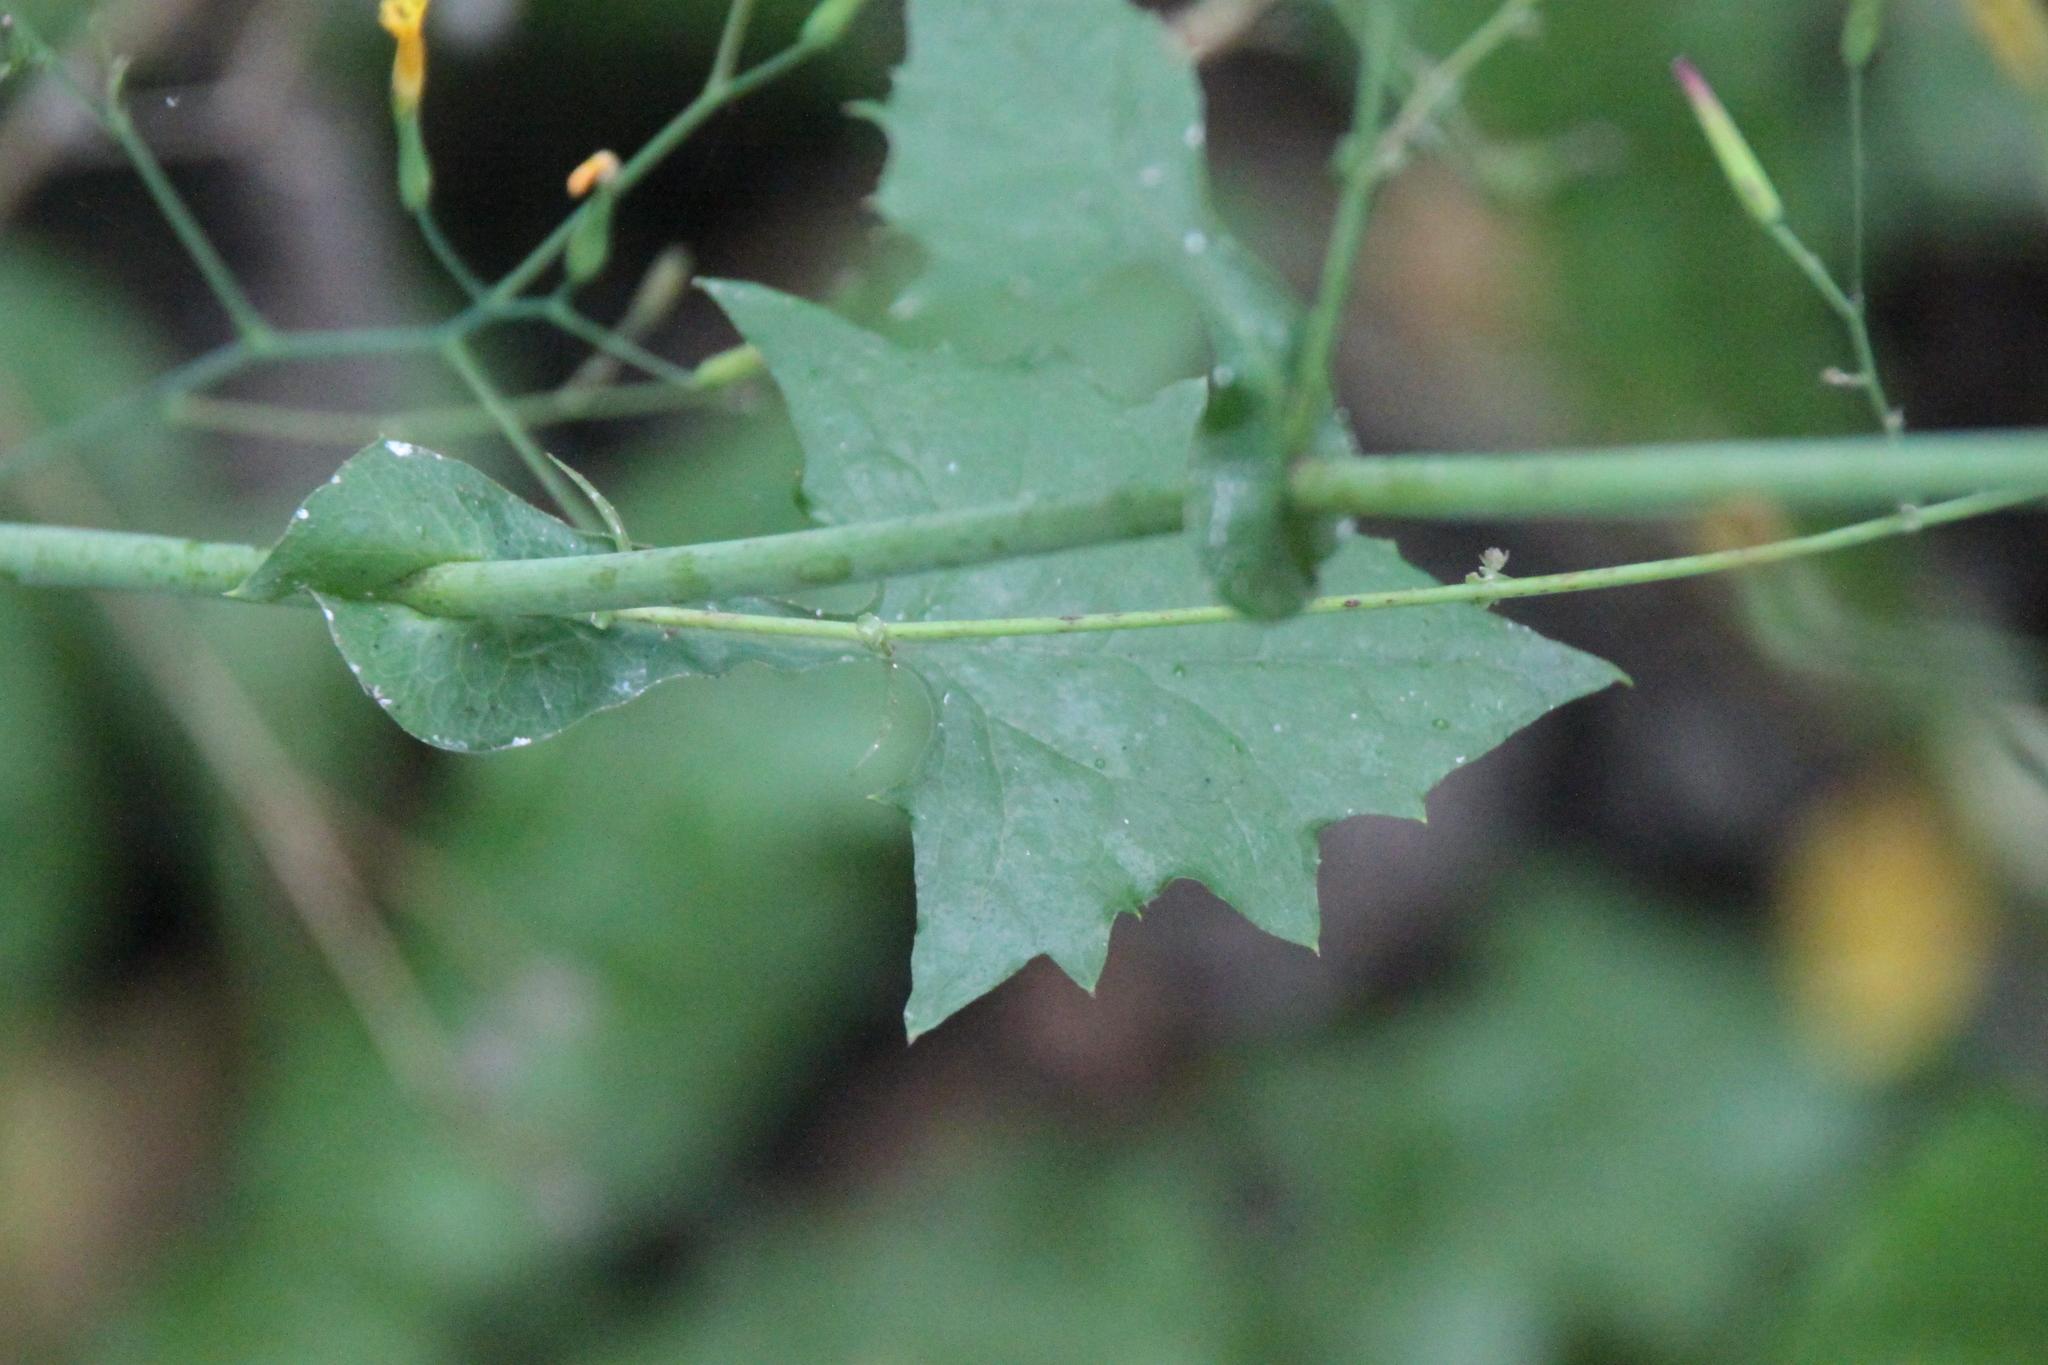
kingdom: Plantae
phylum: Tracheophyta
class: Magnoliopsida
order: Asterales
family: Asteraceae
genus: Mycelis
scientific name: Mycelis muralis
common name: Wall lettuce
